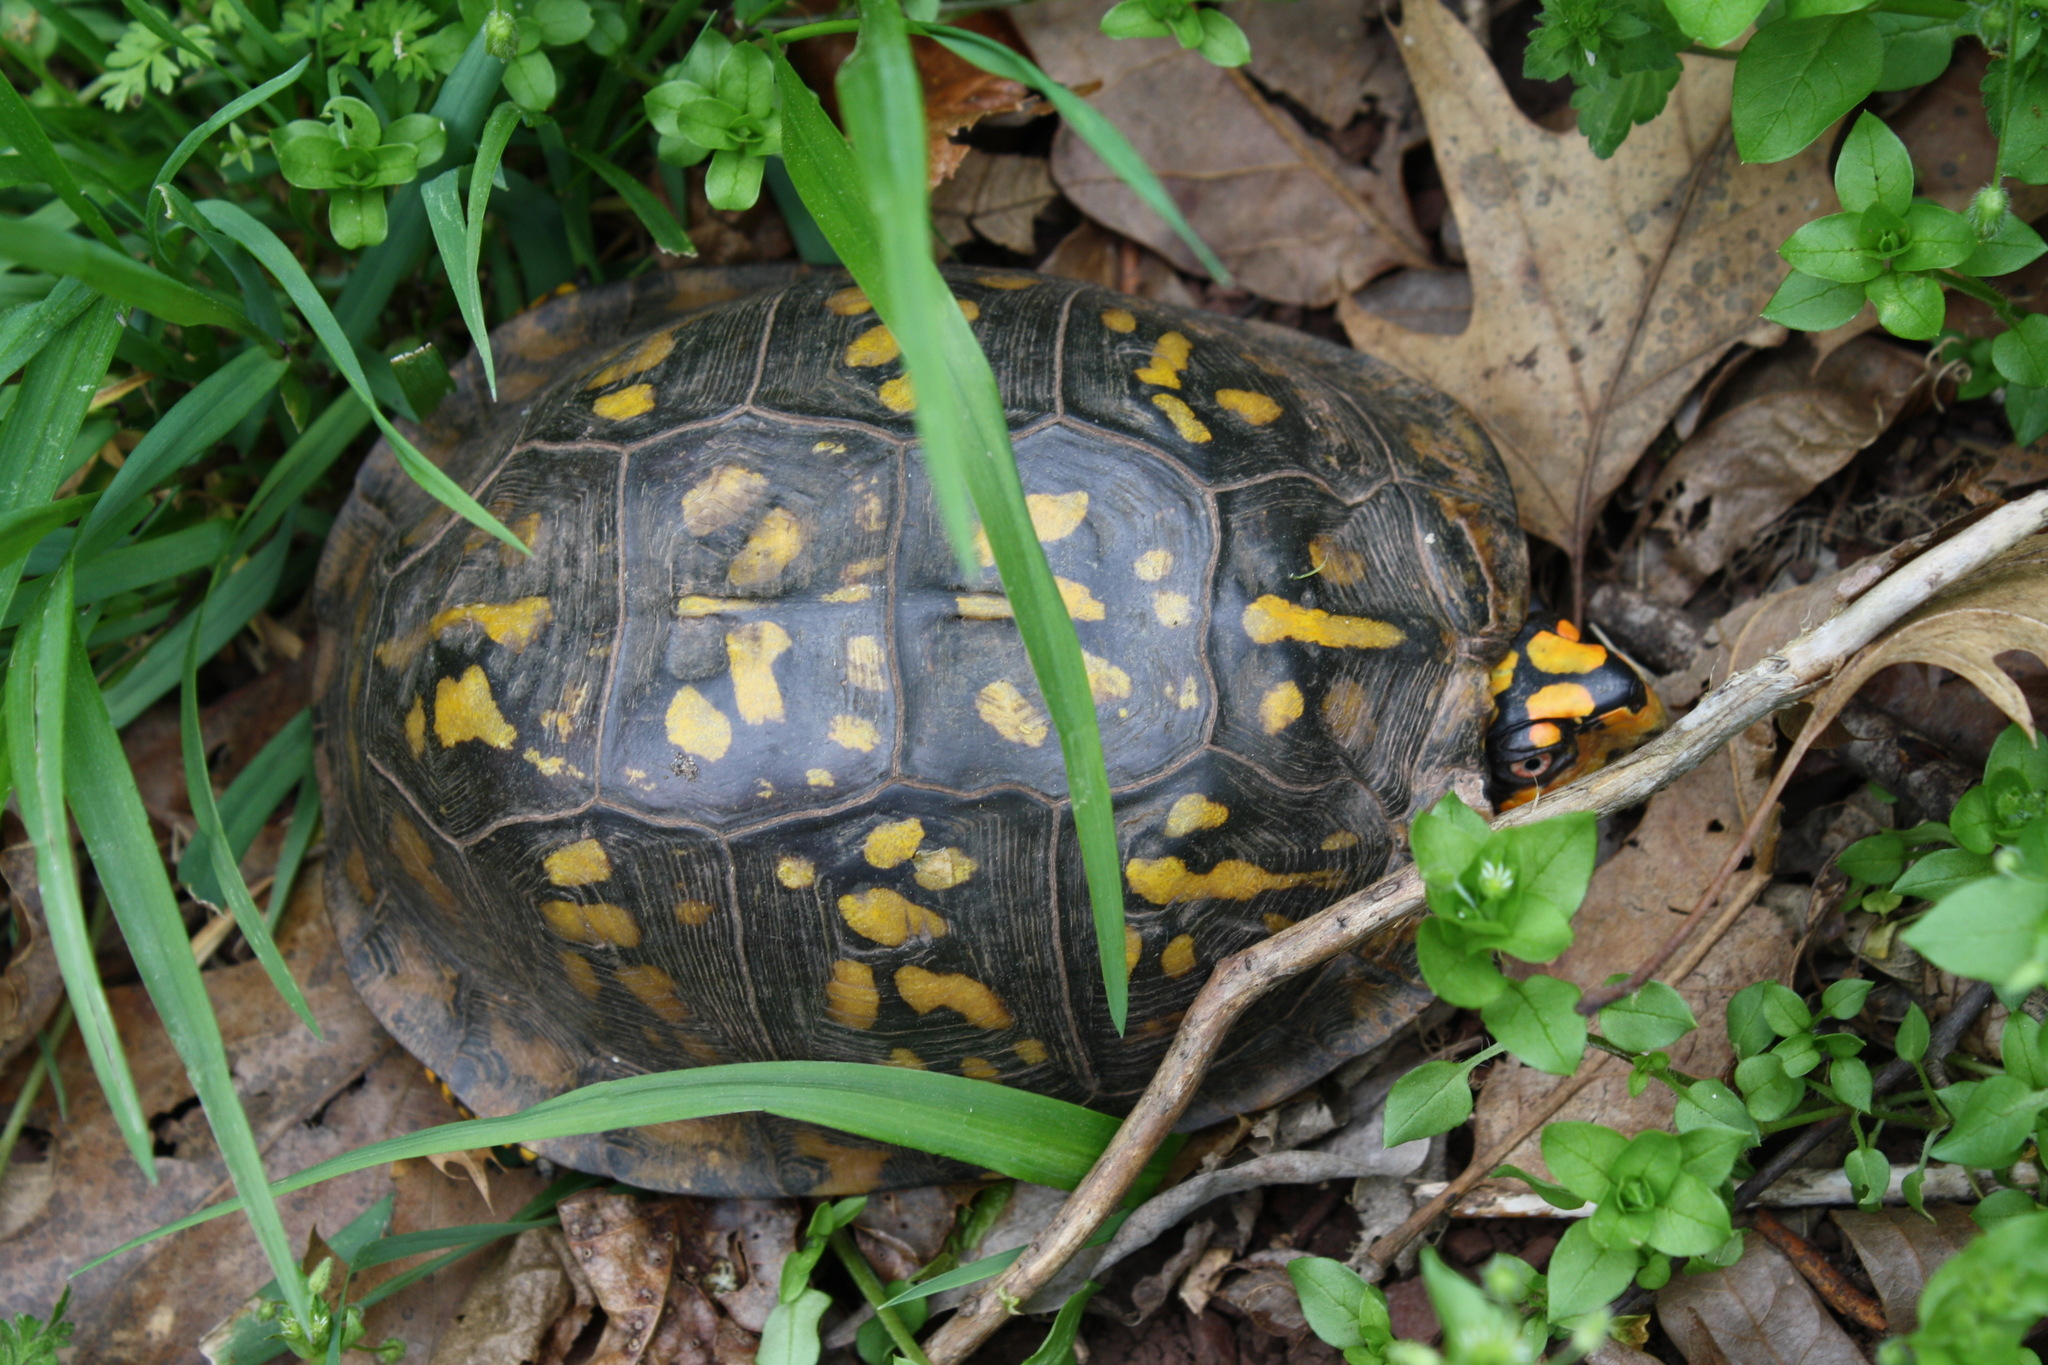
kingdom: Animalia
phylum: Chordata
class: Testudines
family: Emydidae
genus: Terrapene
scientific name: Terrapene carolina
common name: Common box turtle
